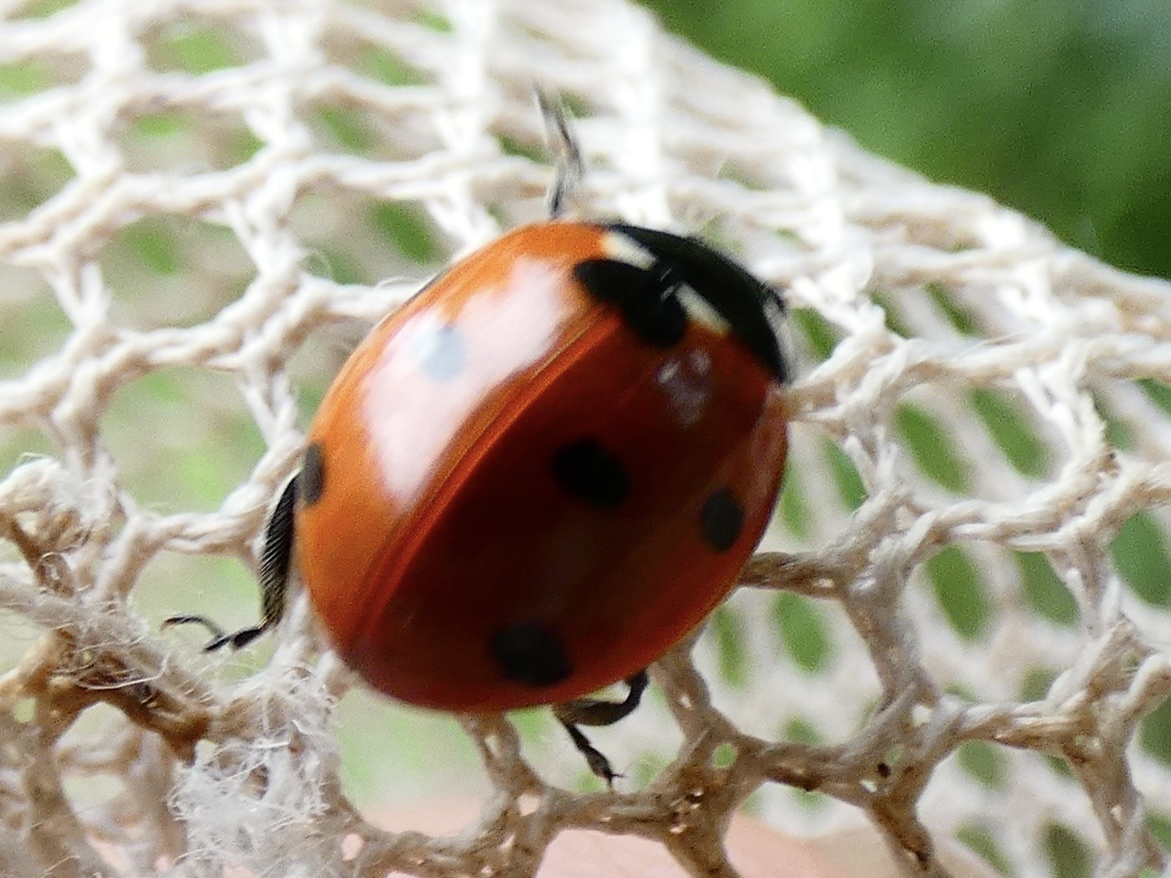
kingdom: Animalia
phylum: Arthropoda
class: Insecta
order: Coleoptera
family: Coccinellidae
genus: Coccinella
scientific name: Coccinella septempunctata
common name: Sevenspotted lady beetle
